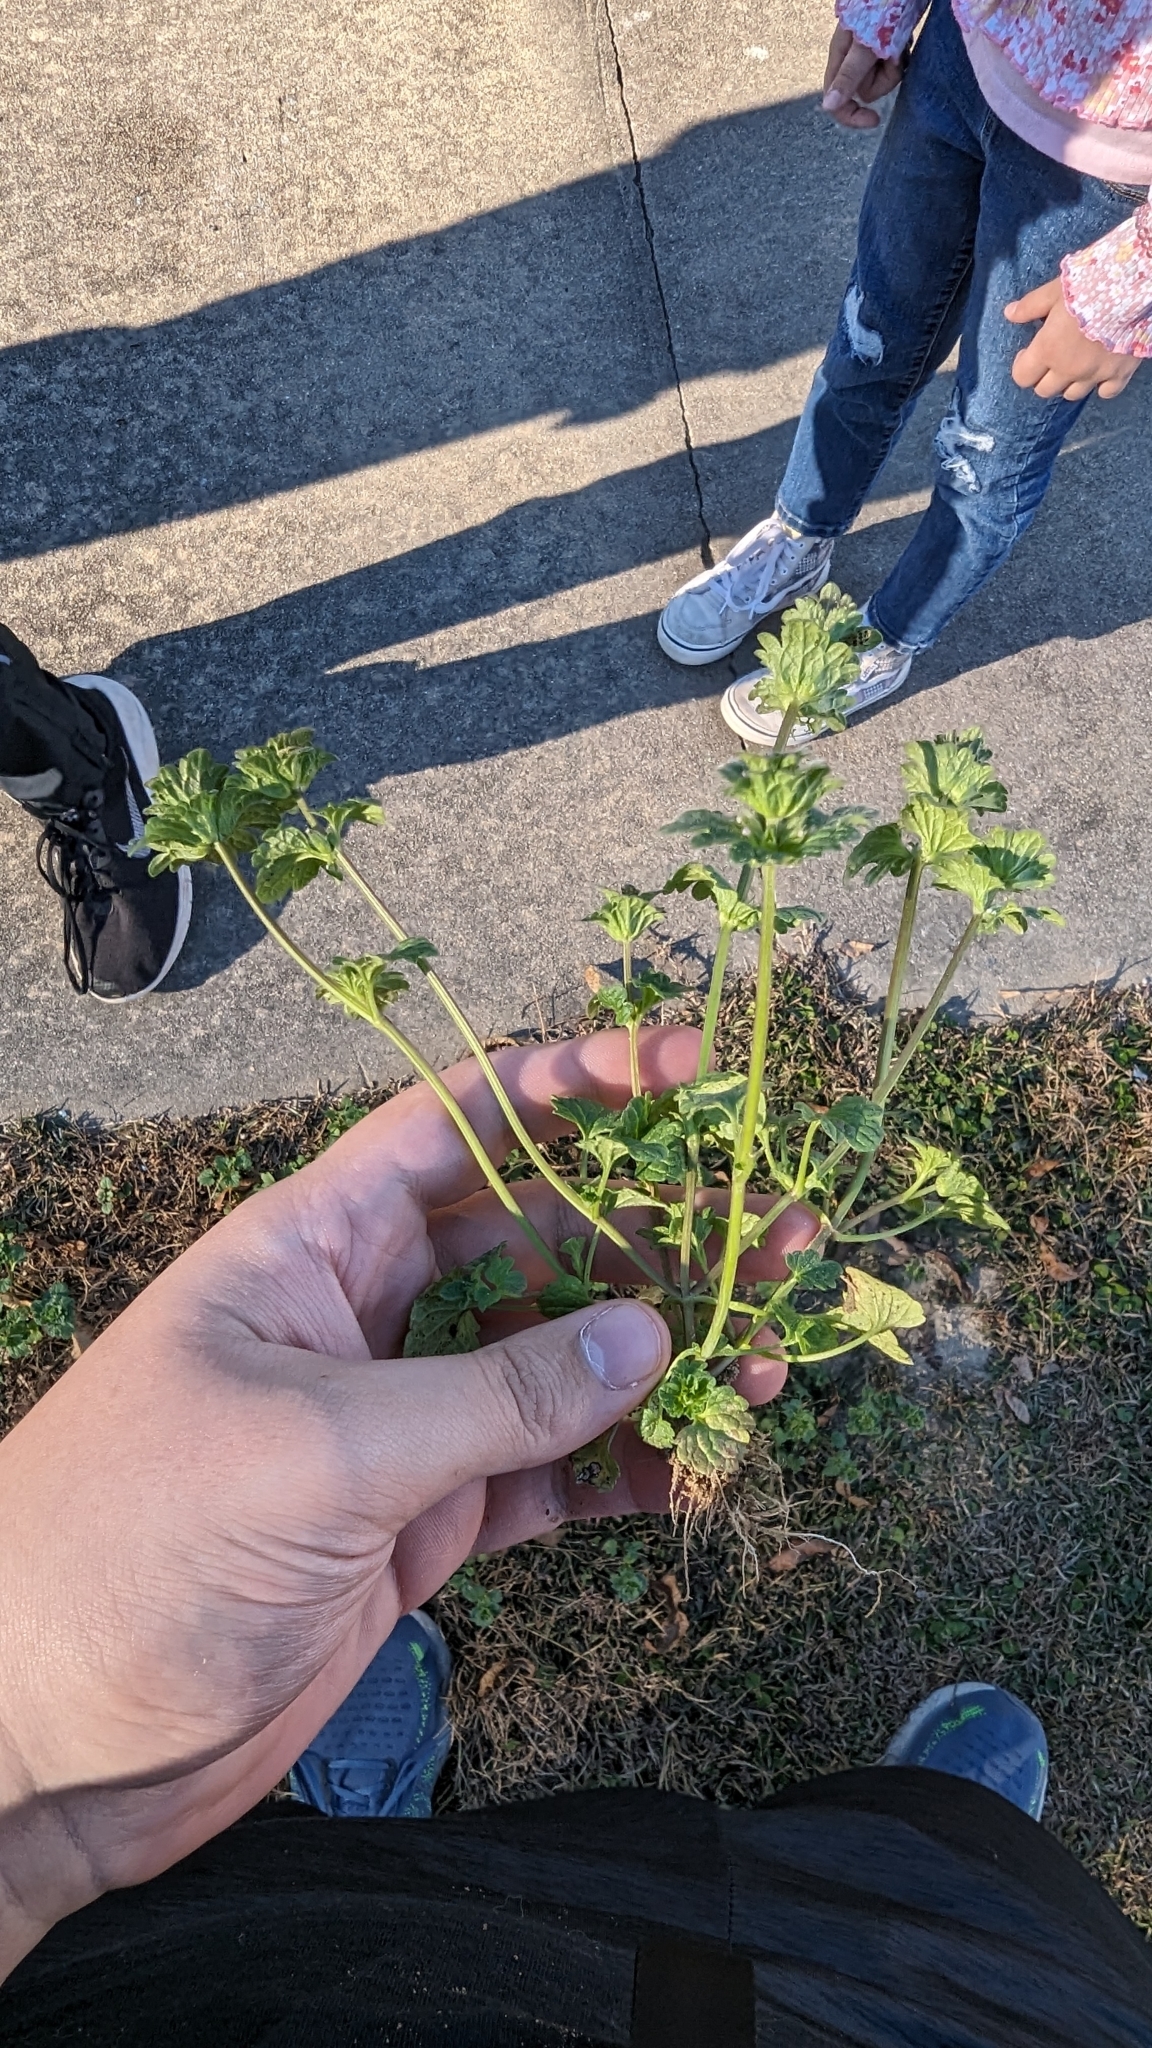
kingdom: Plantae
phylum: Tracheophyta
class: Magnoliopsida
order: Lamiales
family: Lamiaceae
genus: Lamium
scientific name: Lamium amplexicaule
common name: Henbit dead-nettle
